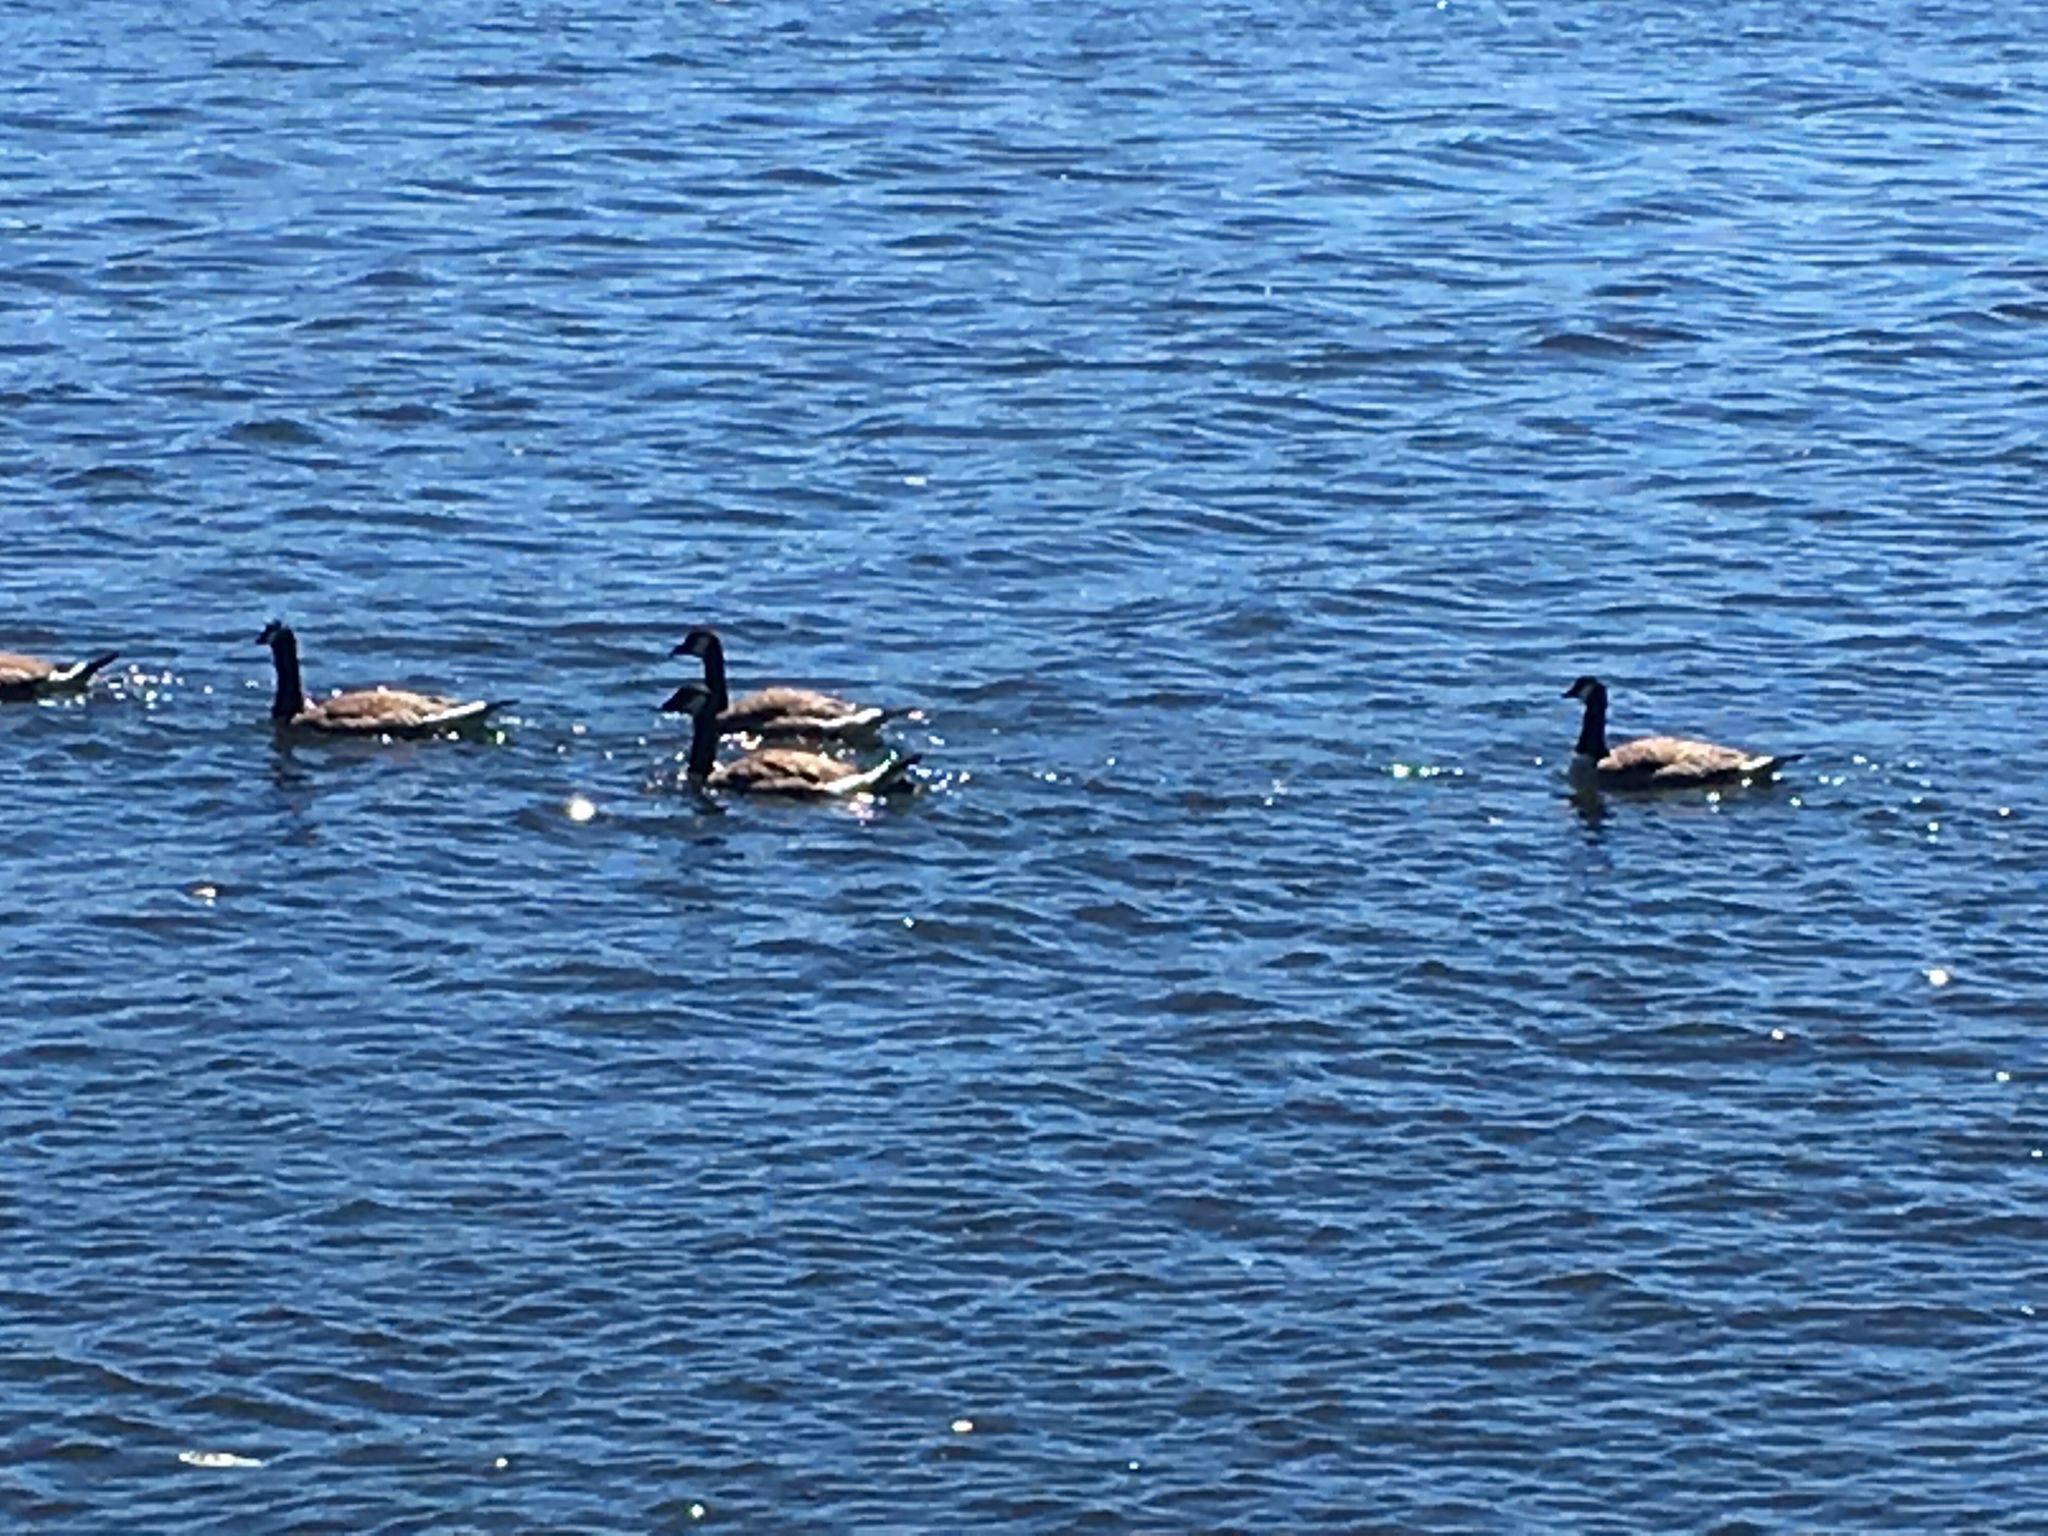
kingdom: Animalia
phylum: Chordata
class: Aves
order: Anseriformes
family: Anatidae
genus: Branta
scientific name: Branta canadensis
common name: Canada goose
